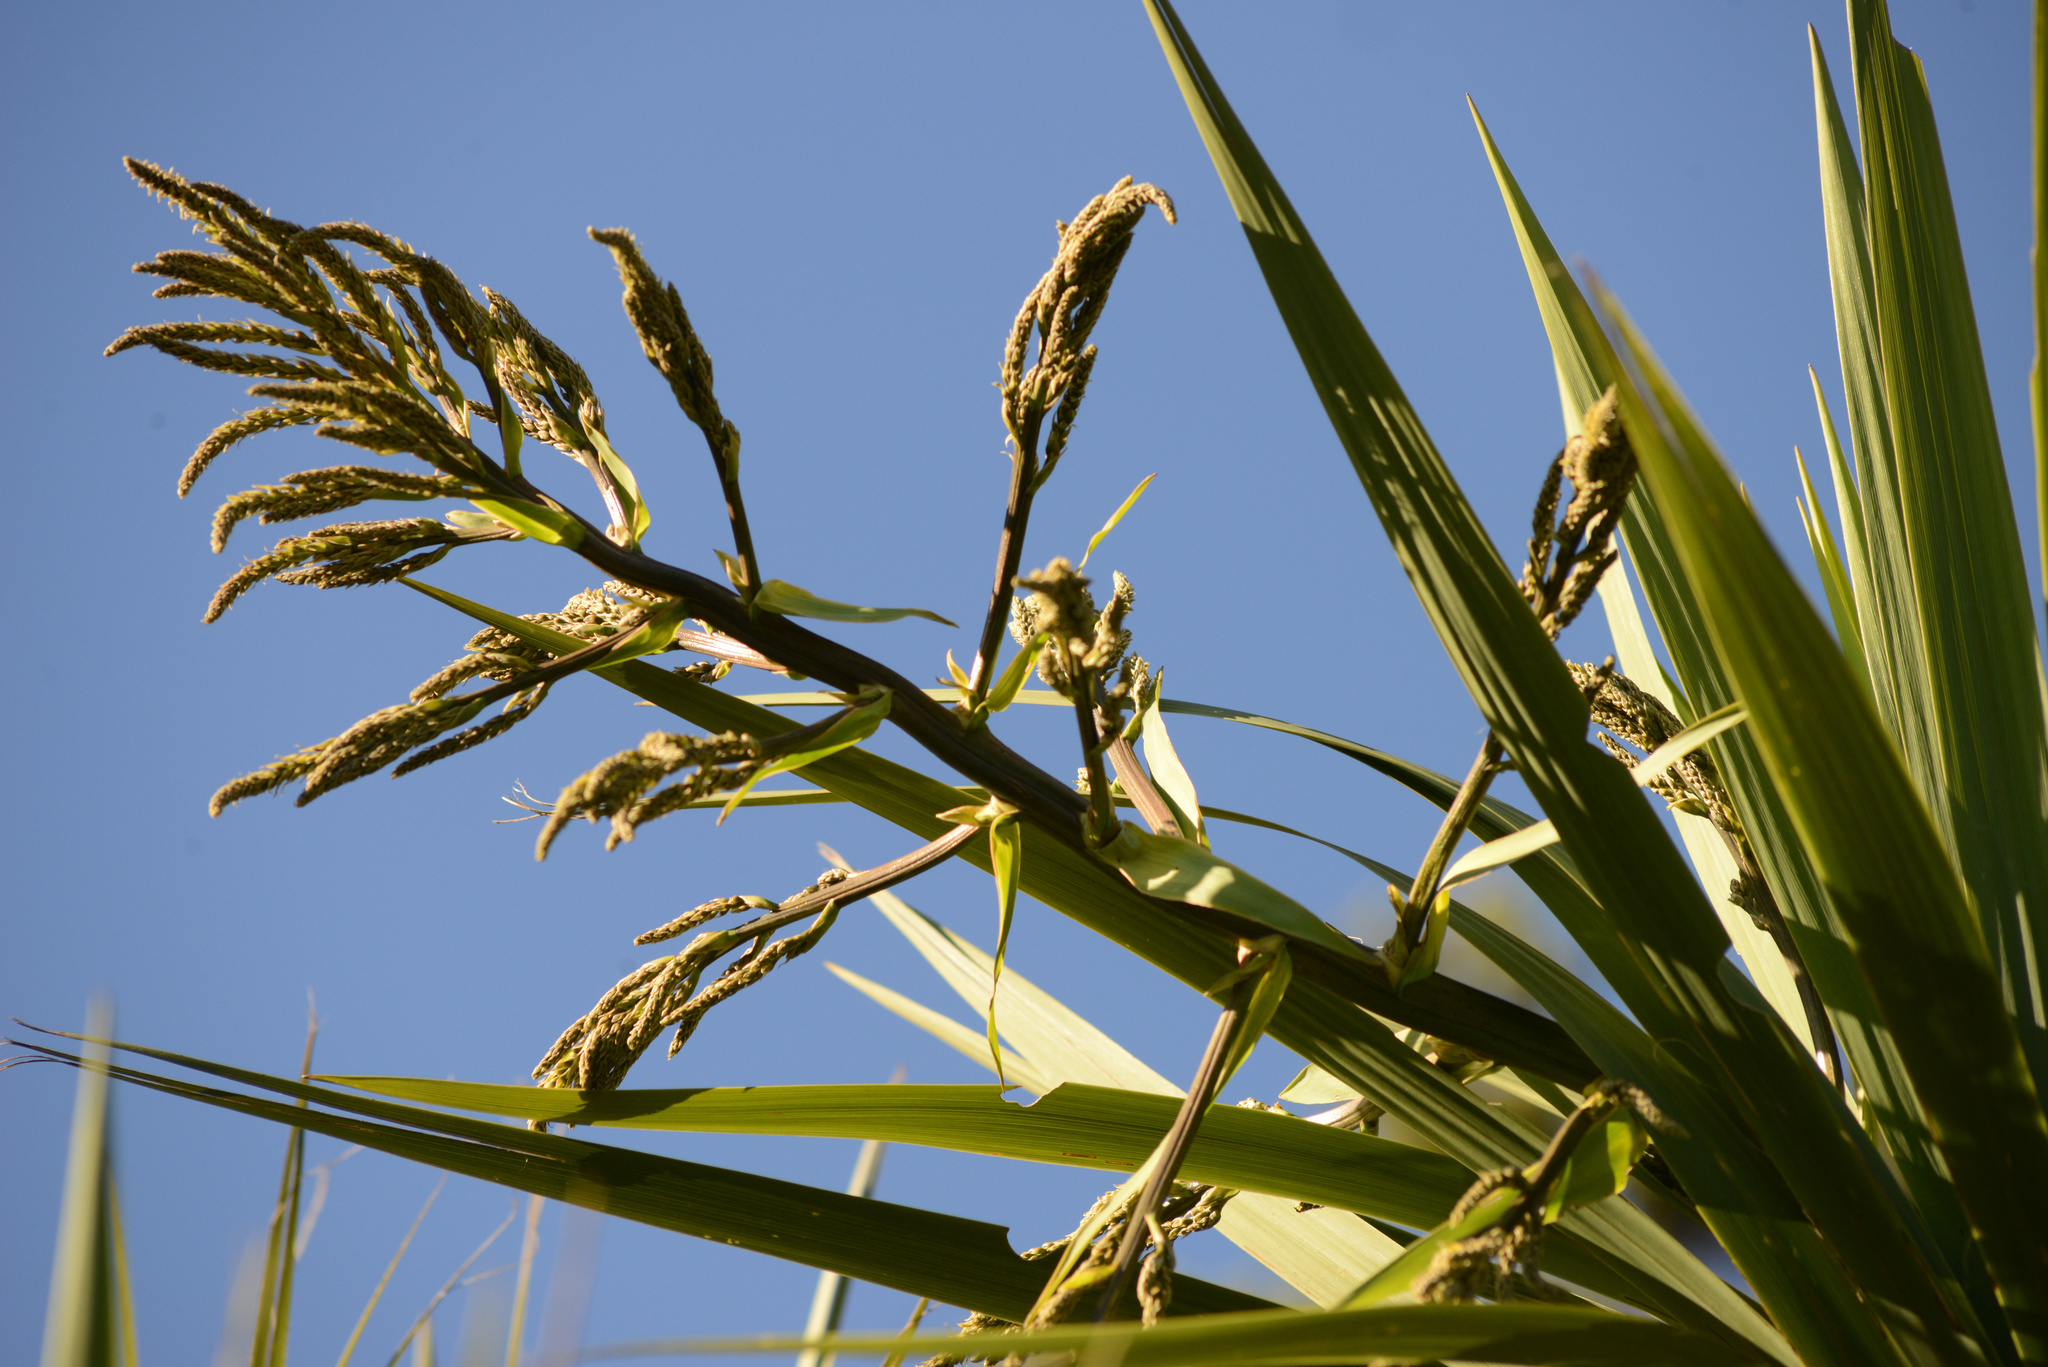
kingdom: Plantae
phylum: Tracheophyta
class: Liliopsida
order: Asparagales
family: Asparagaceae
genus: Cordyline
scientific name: Cordyline australis
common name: Cabbage-palm
